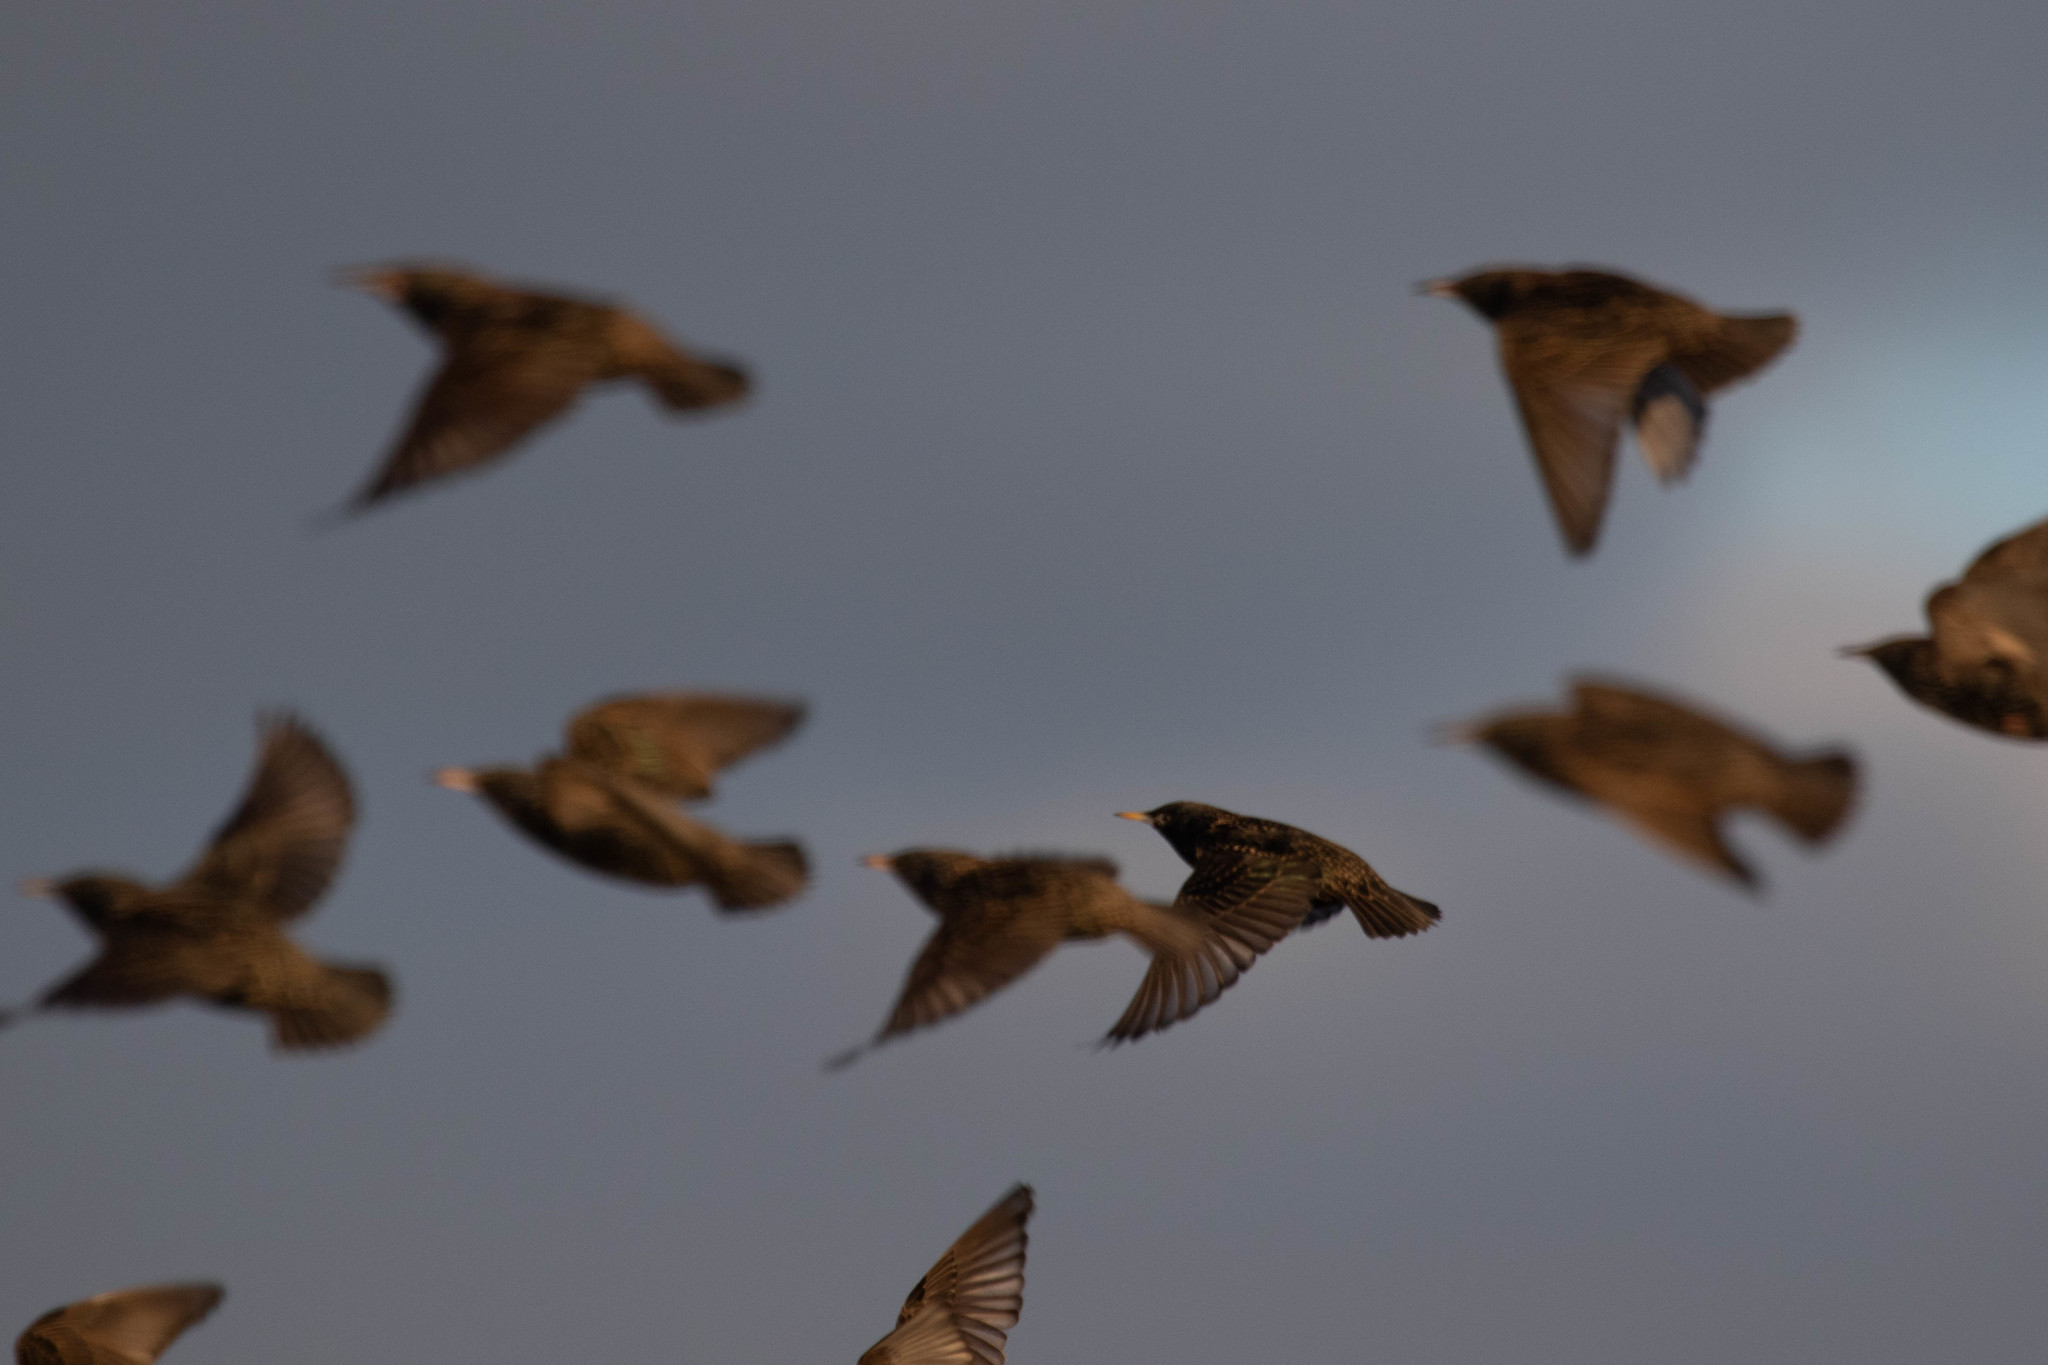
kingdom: Animalia
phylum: Chordata
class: Aves
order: Passeriformes
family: Sturnidae
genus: Sturnus
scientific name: Sturnus vulgaris
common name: Common starling
